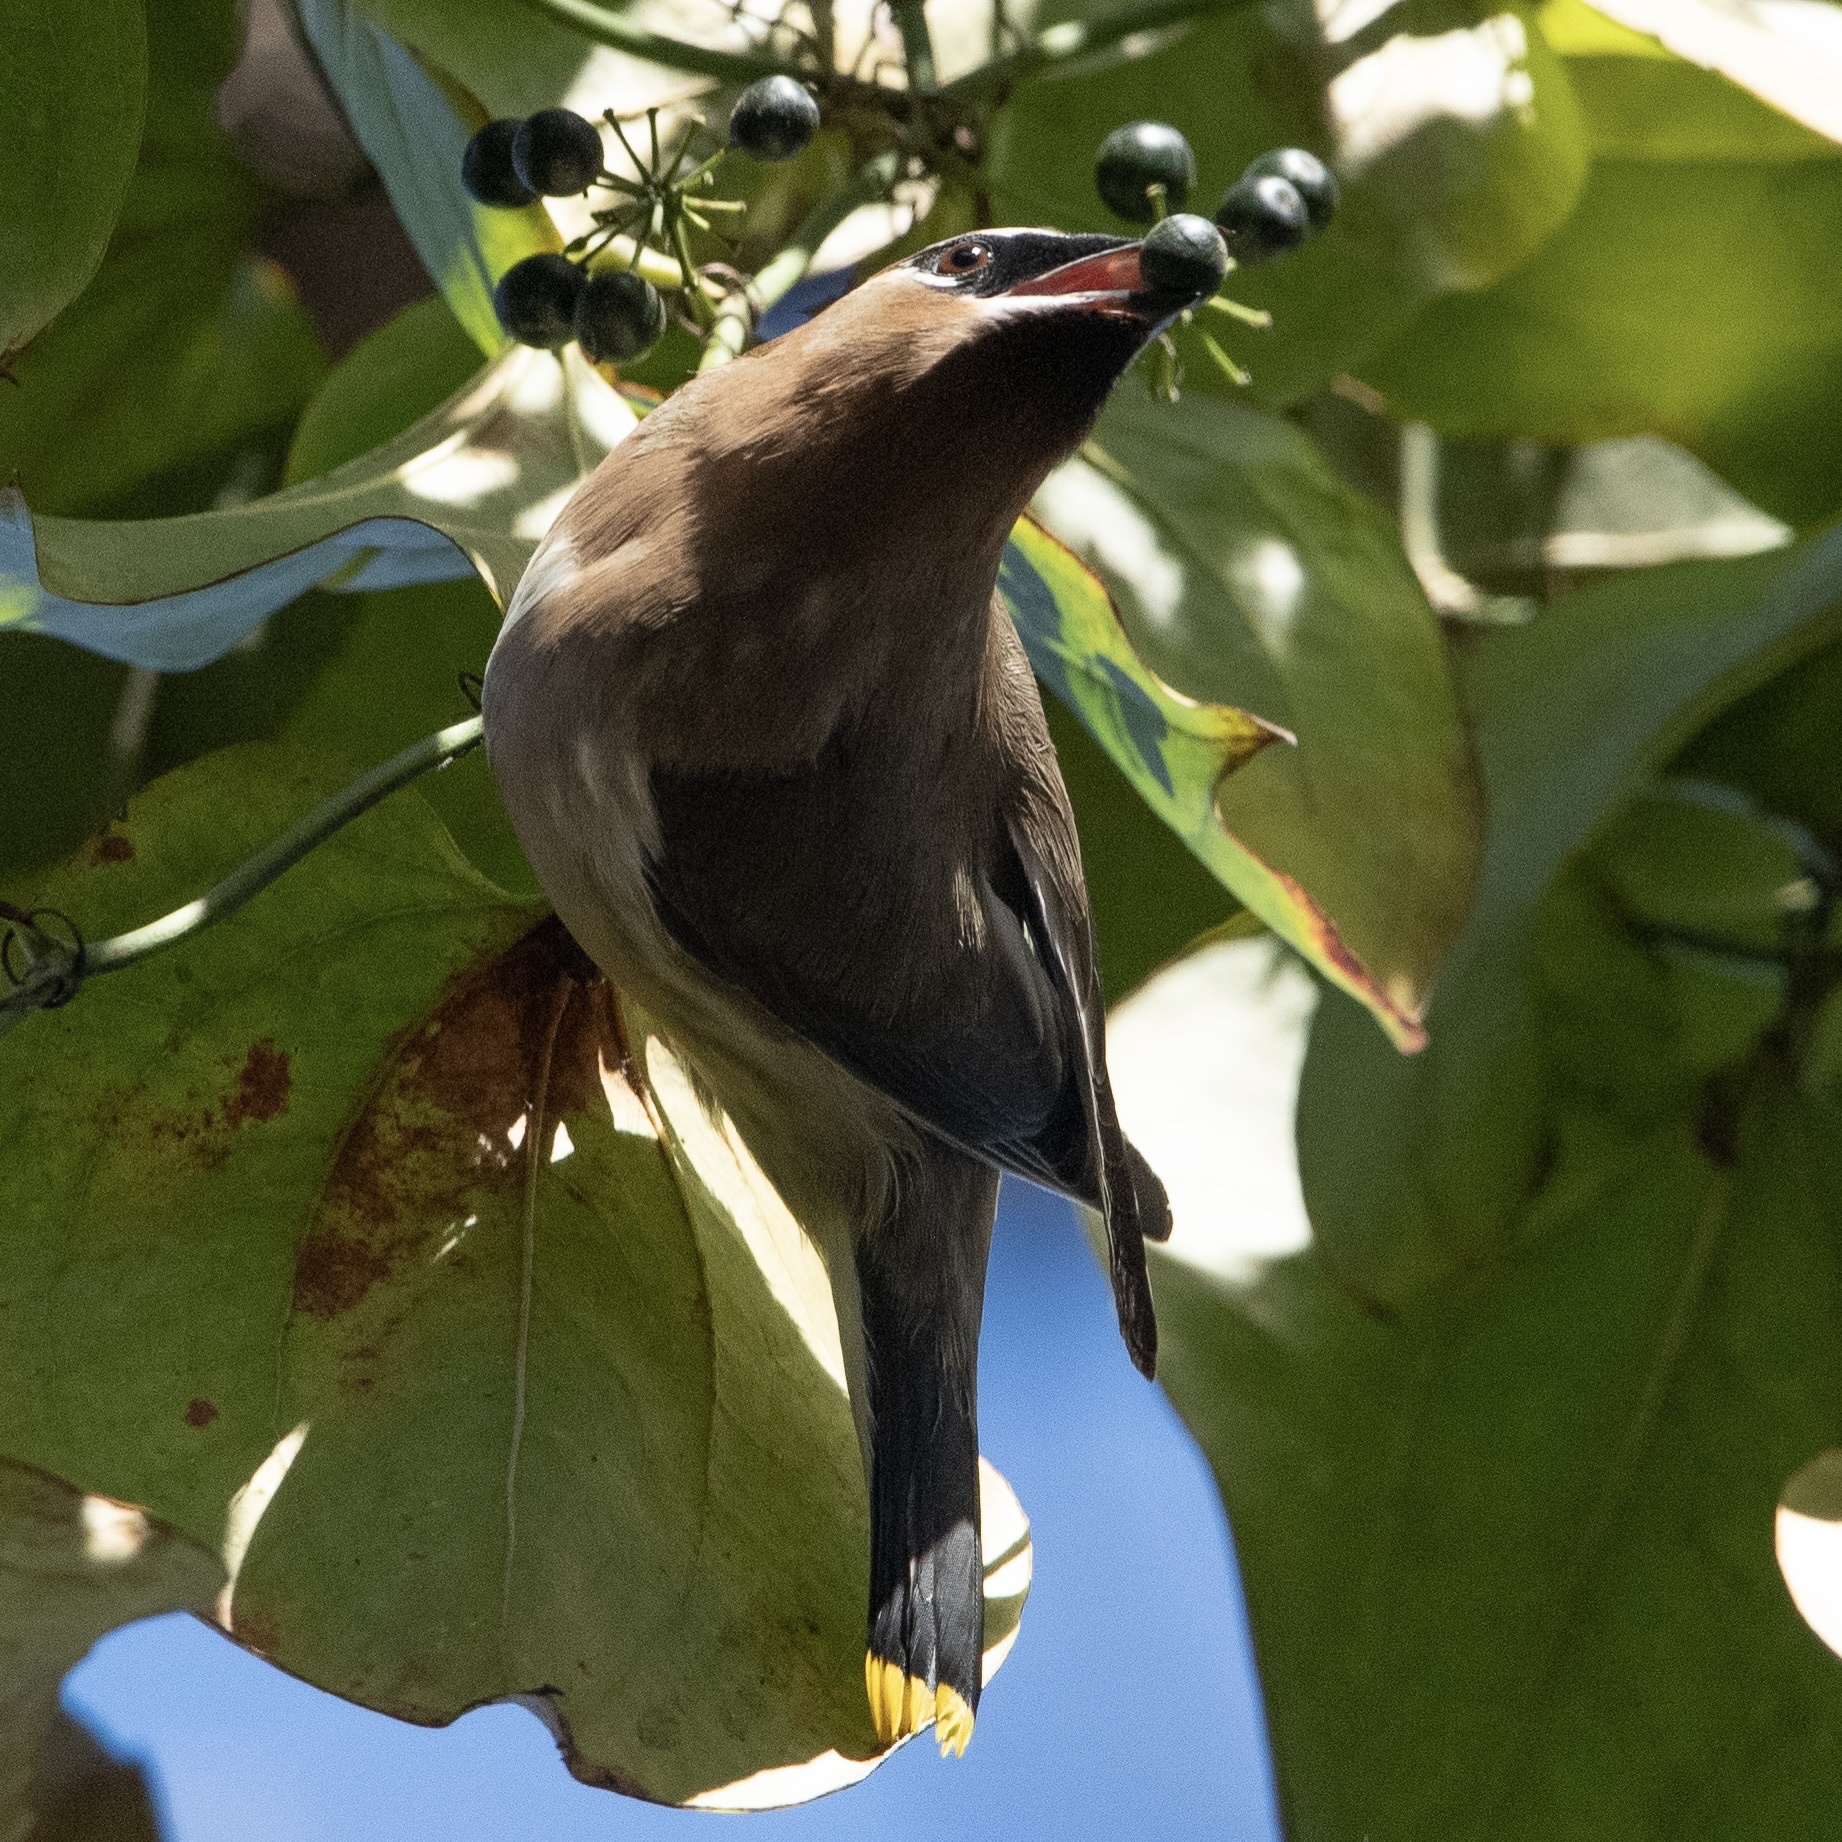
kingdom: Animalia
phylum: Chordata
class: Aves
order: Passeriformes
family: Bombycillidae
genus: Bombycilla
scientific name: Bombycilla cedrorum
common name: Cedar waxwing
